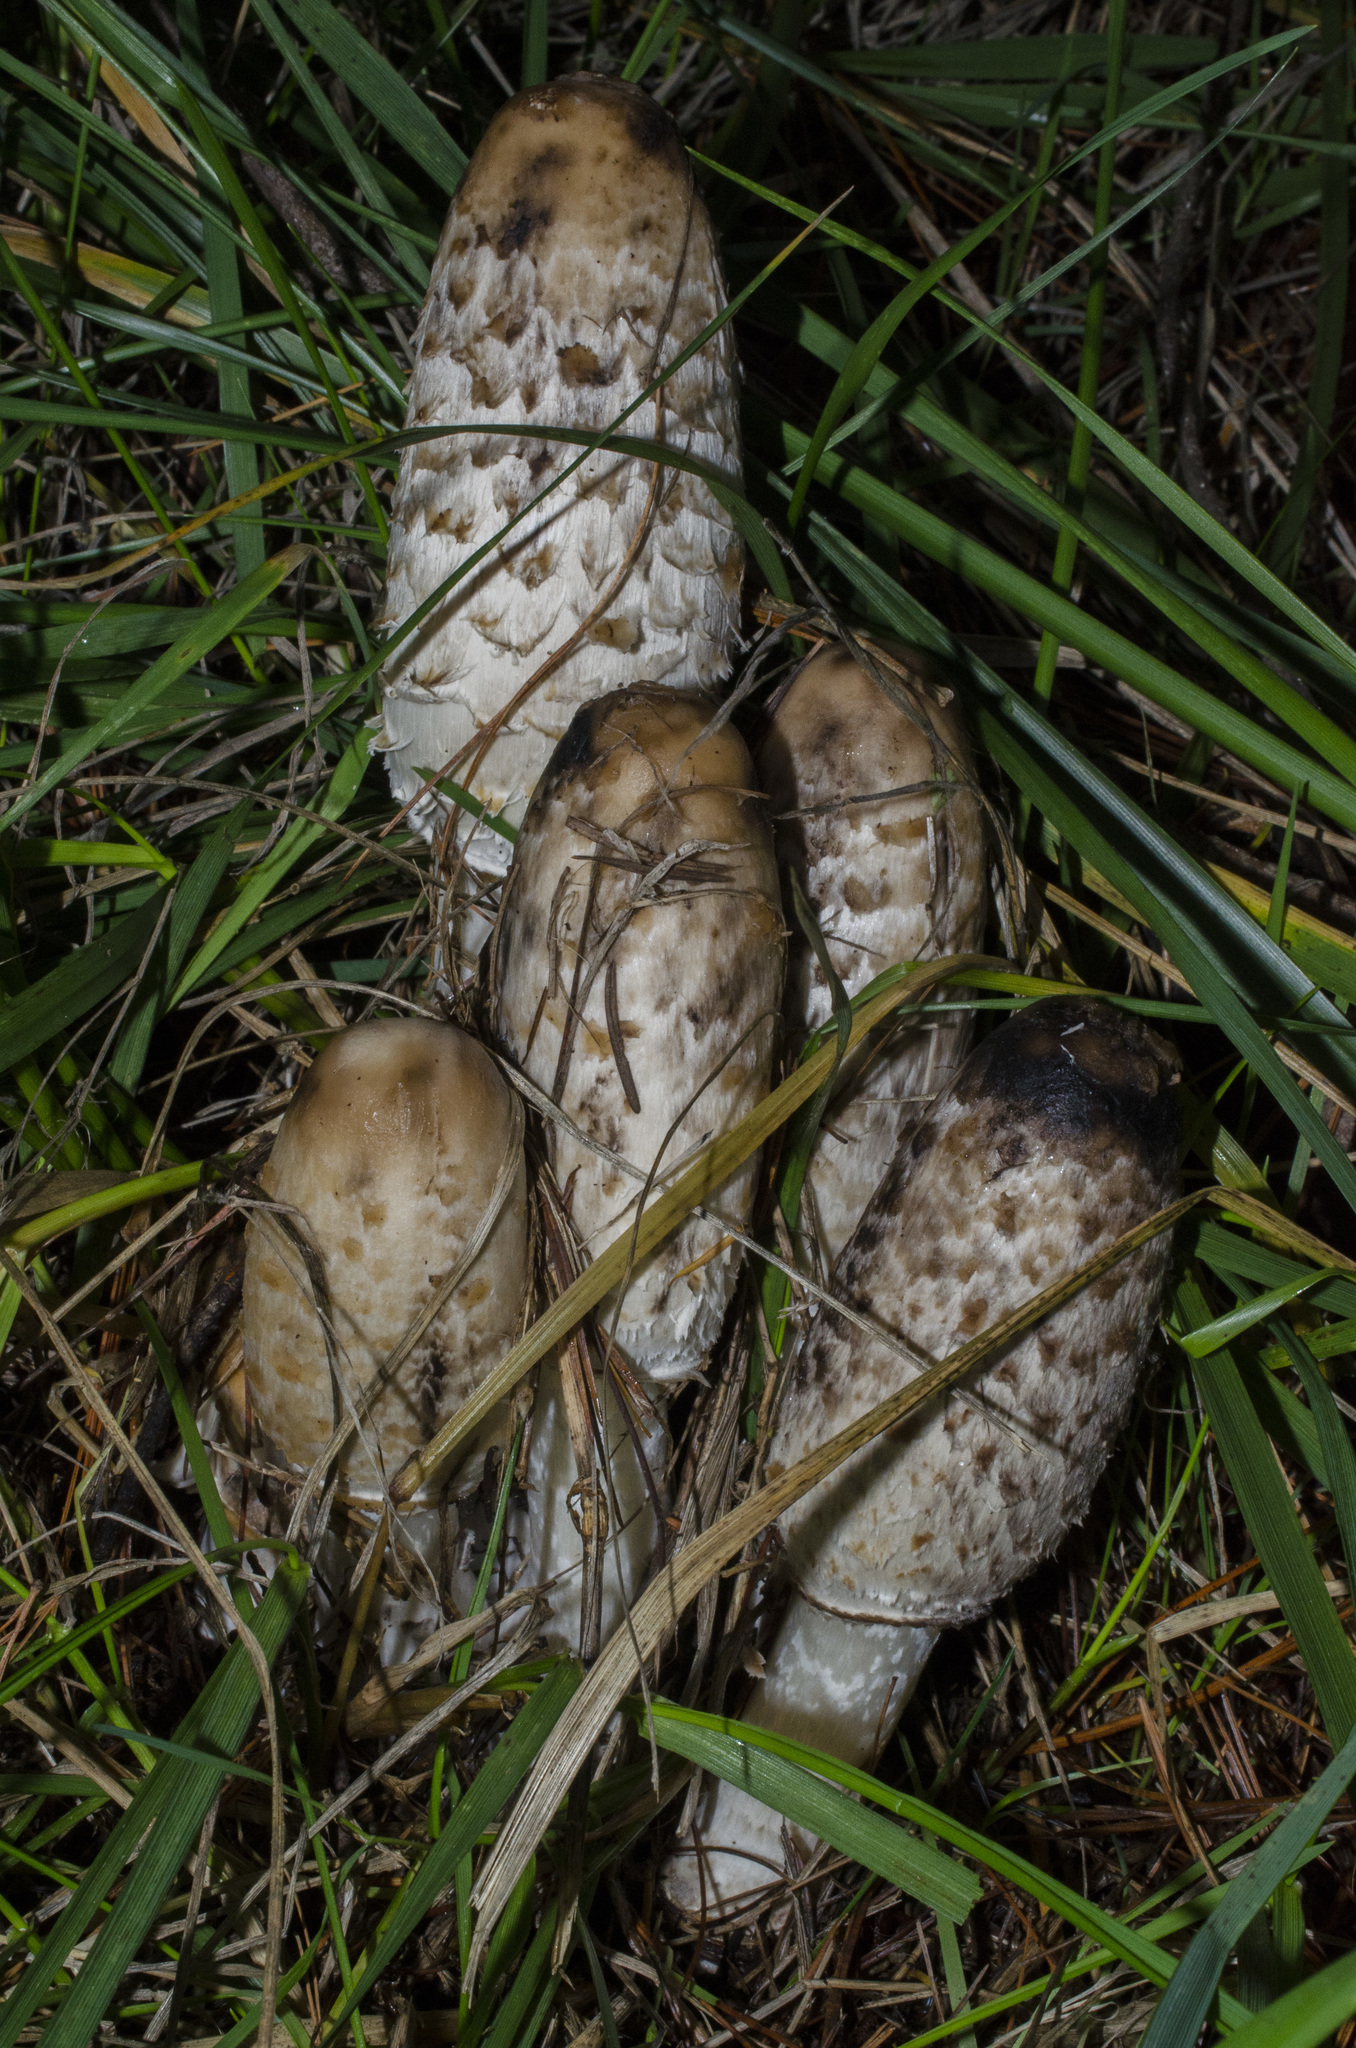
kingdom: Fungi
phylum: Basidiomycota
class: Agaricomycetes
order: Agaricales
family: Agaricaceae
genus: Coprinus
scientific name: Coprinus comatus
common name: Lawyer's wig
